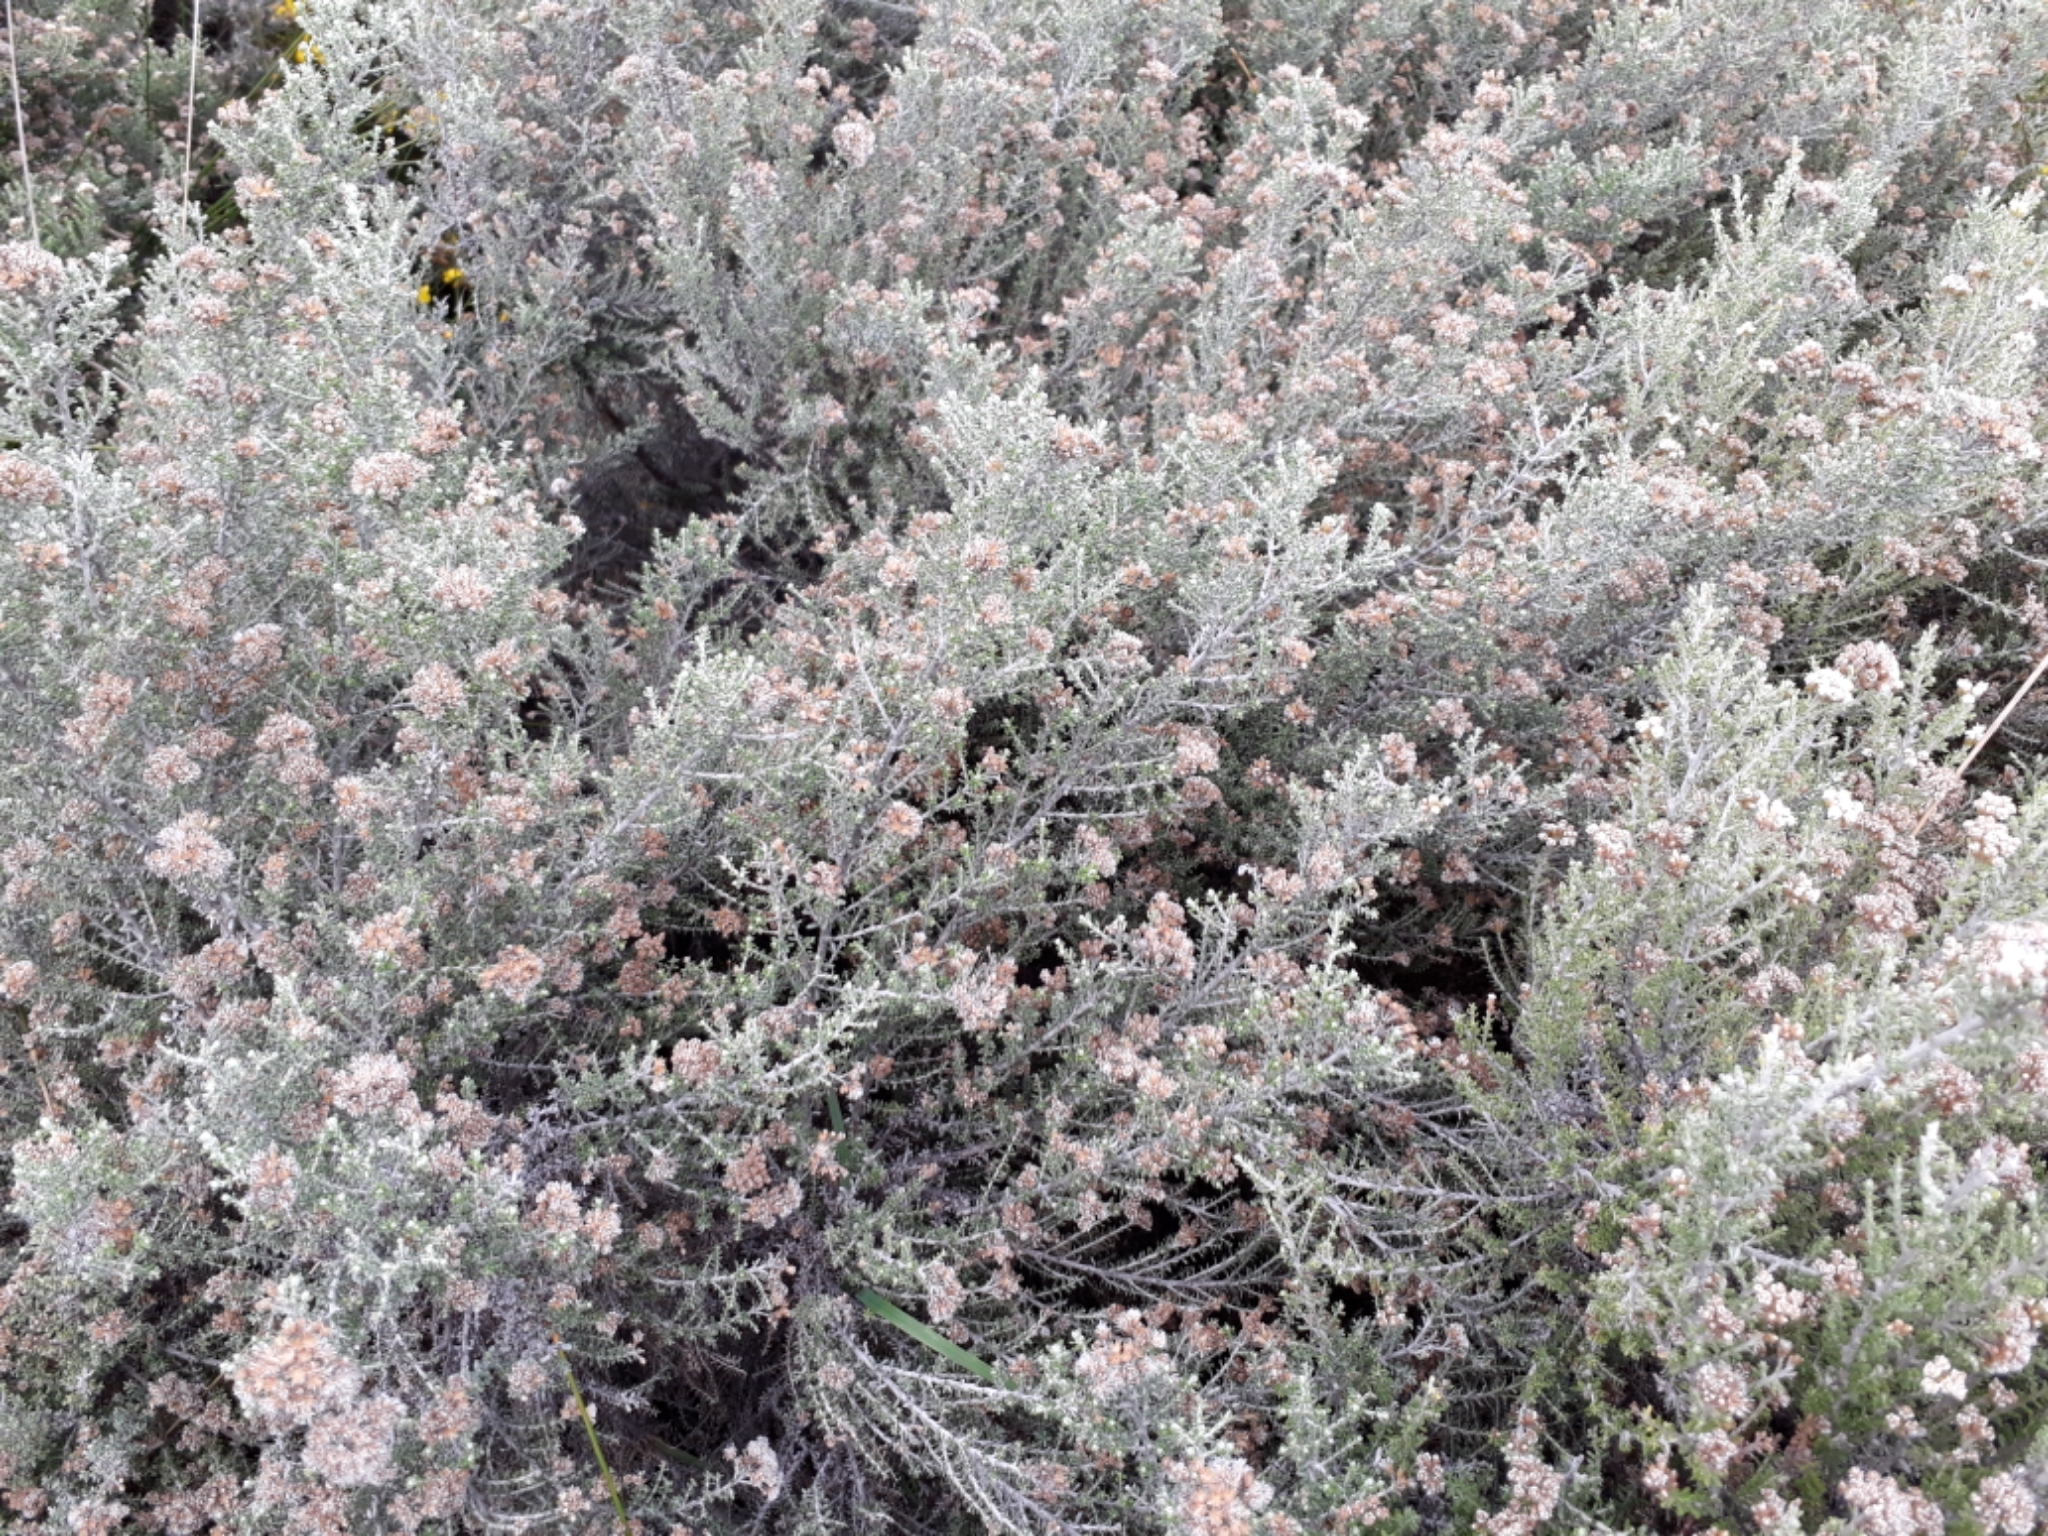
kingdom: Plantae
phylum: Tracheophyta
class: Magnoliopsida
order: Asterales
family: Asteraceae
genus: Ozothamnus
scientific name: Ozothamnus leptophyllus
